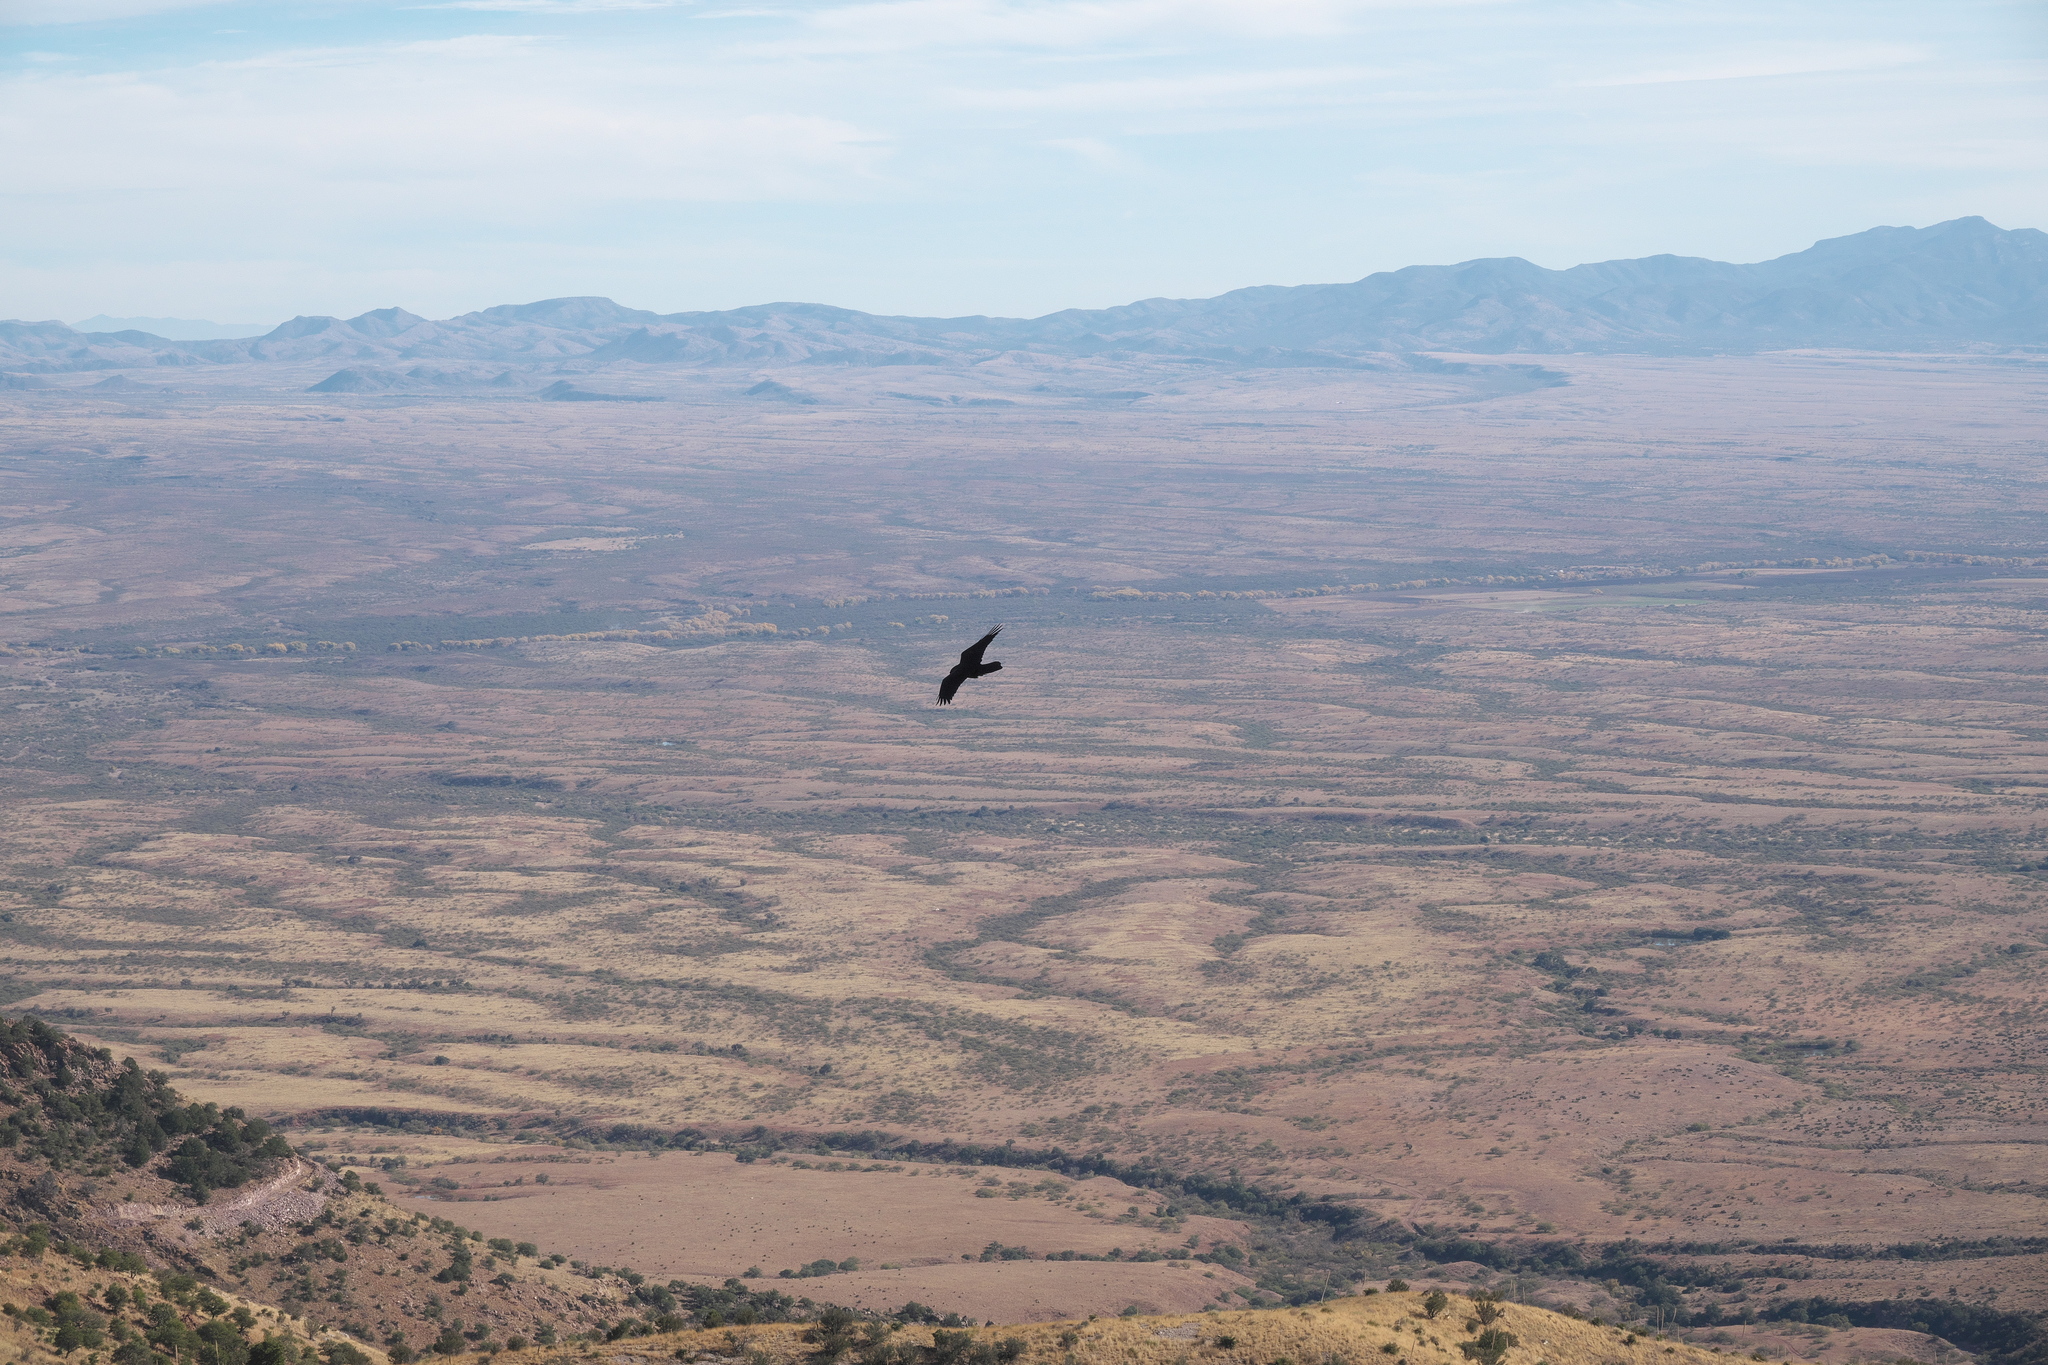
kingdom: Animalia
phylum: Chordata
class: Aves
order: Passeriformes
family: Corvidae
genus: Corvus
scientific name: Corvus corax
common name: Common raven
